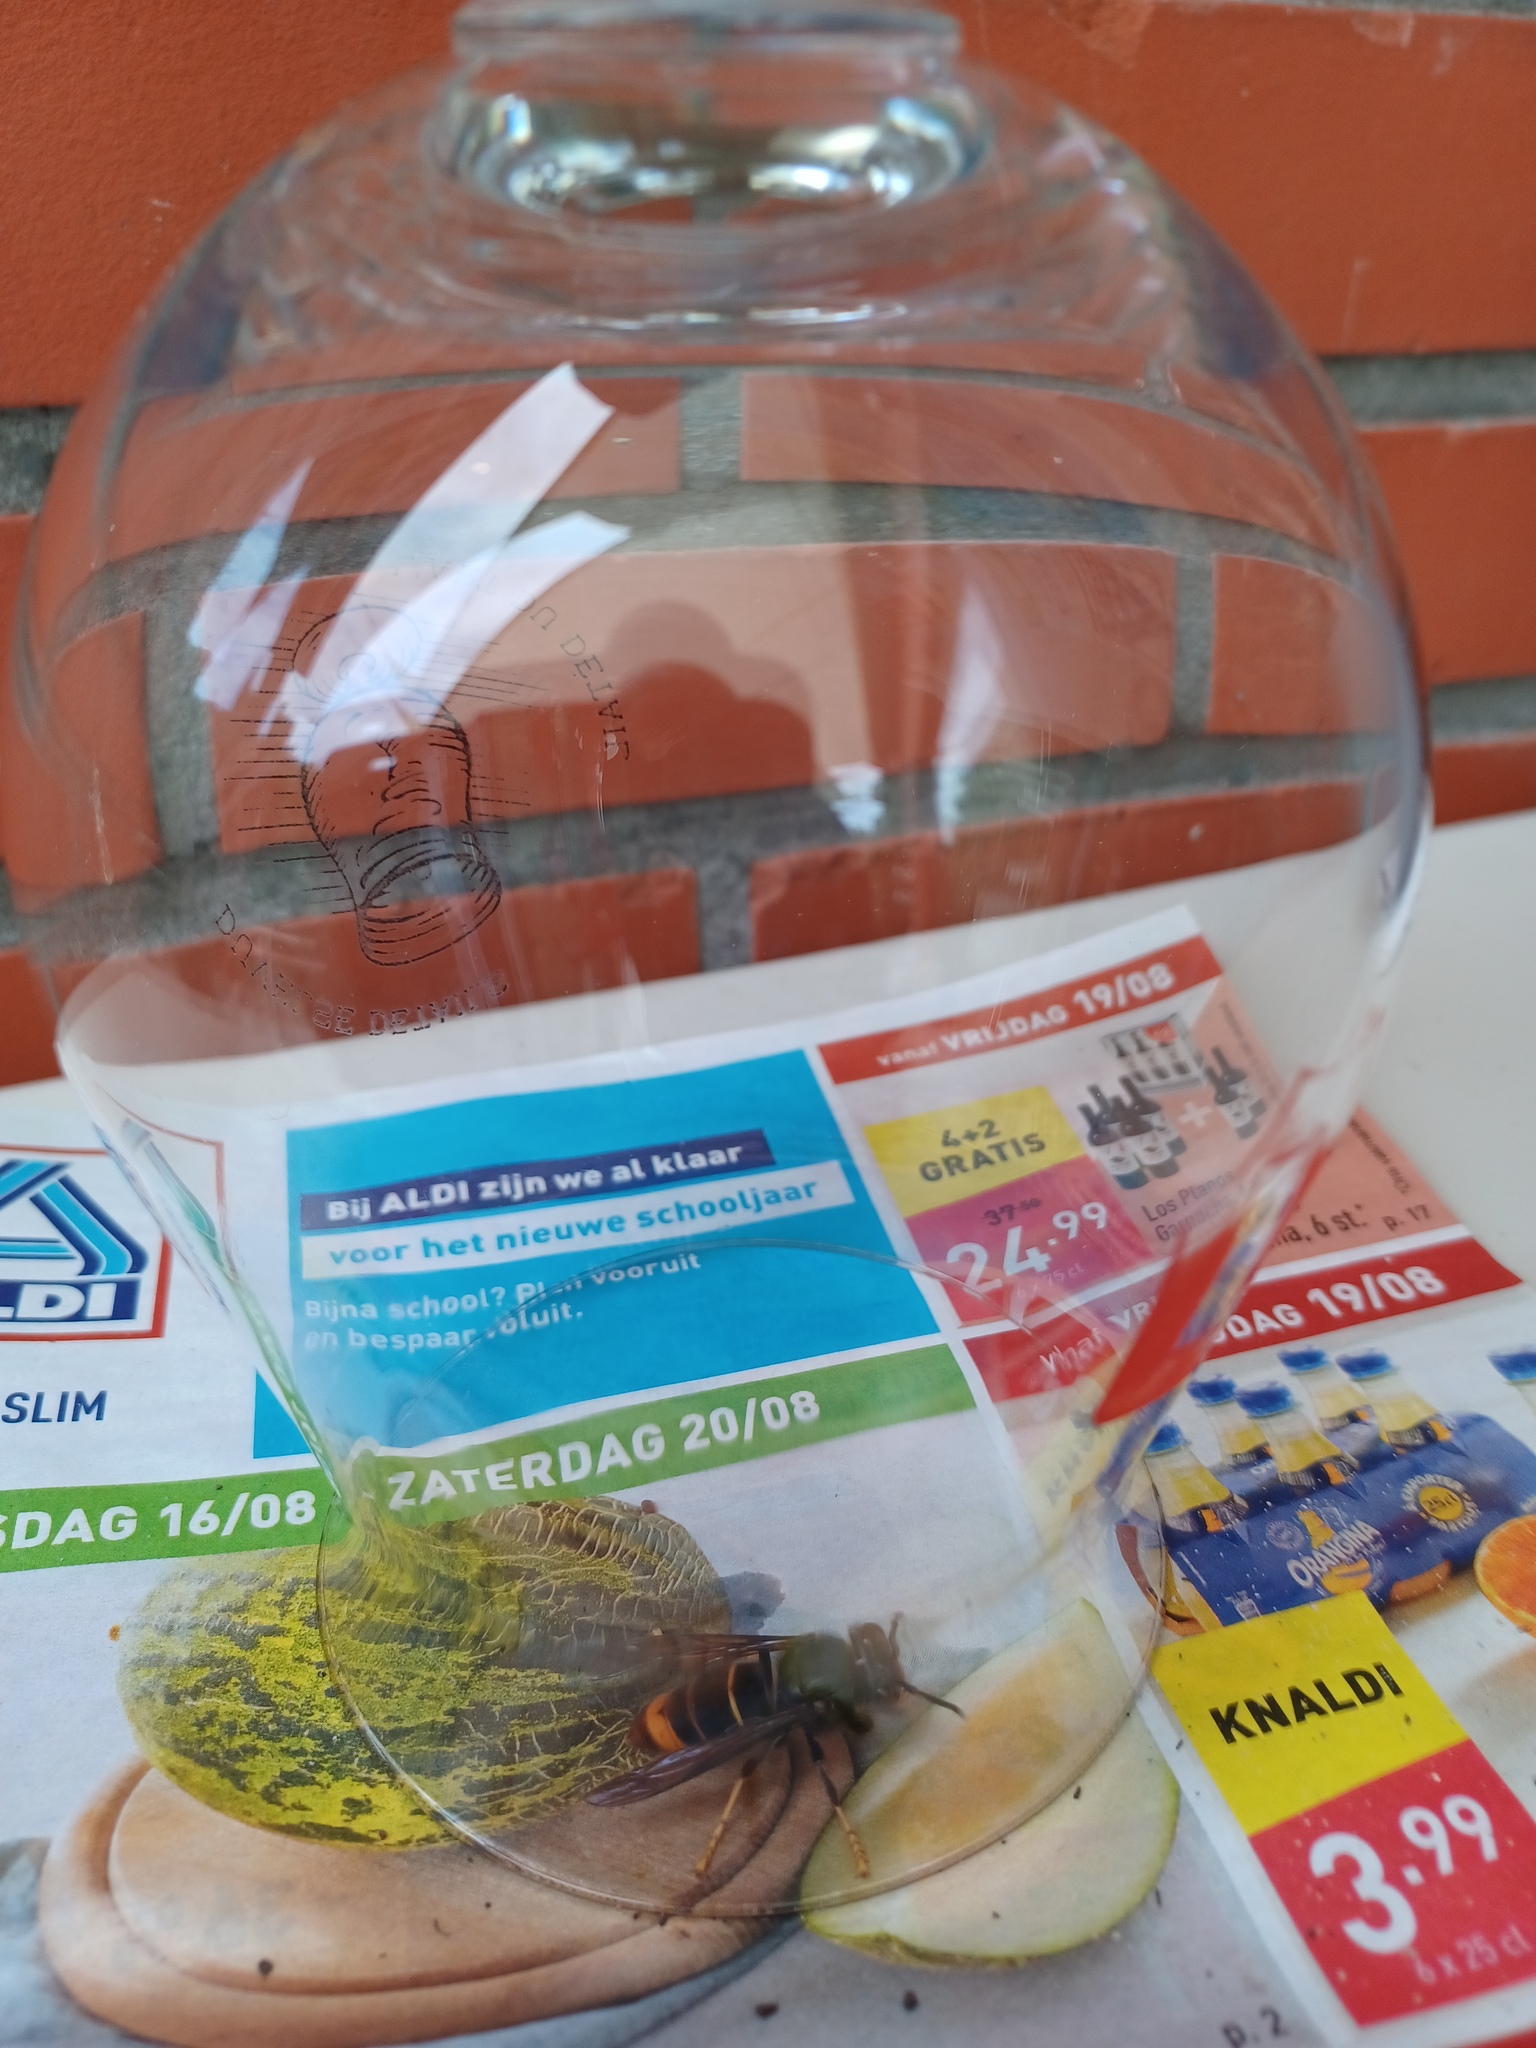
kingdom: Animalia
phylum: Arthropoda
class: Insecta
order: Hymenoptera
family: Vespidae
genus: Vespa
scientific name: Vespa velutina
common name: Asian hornet
